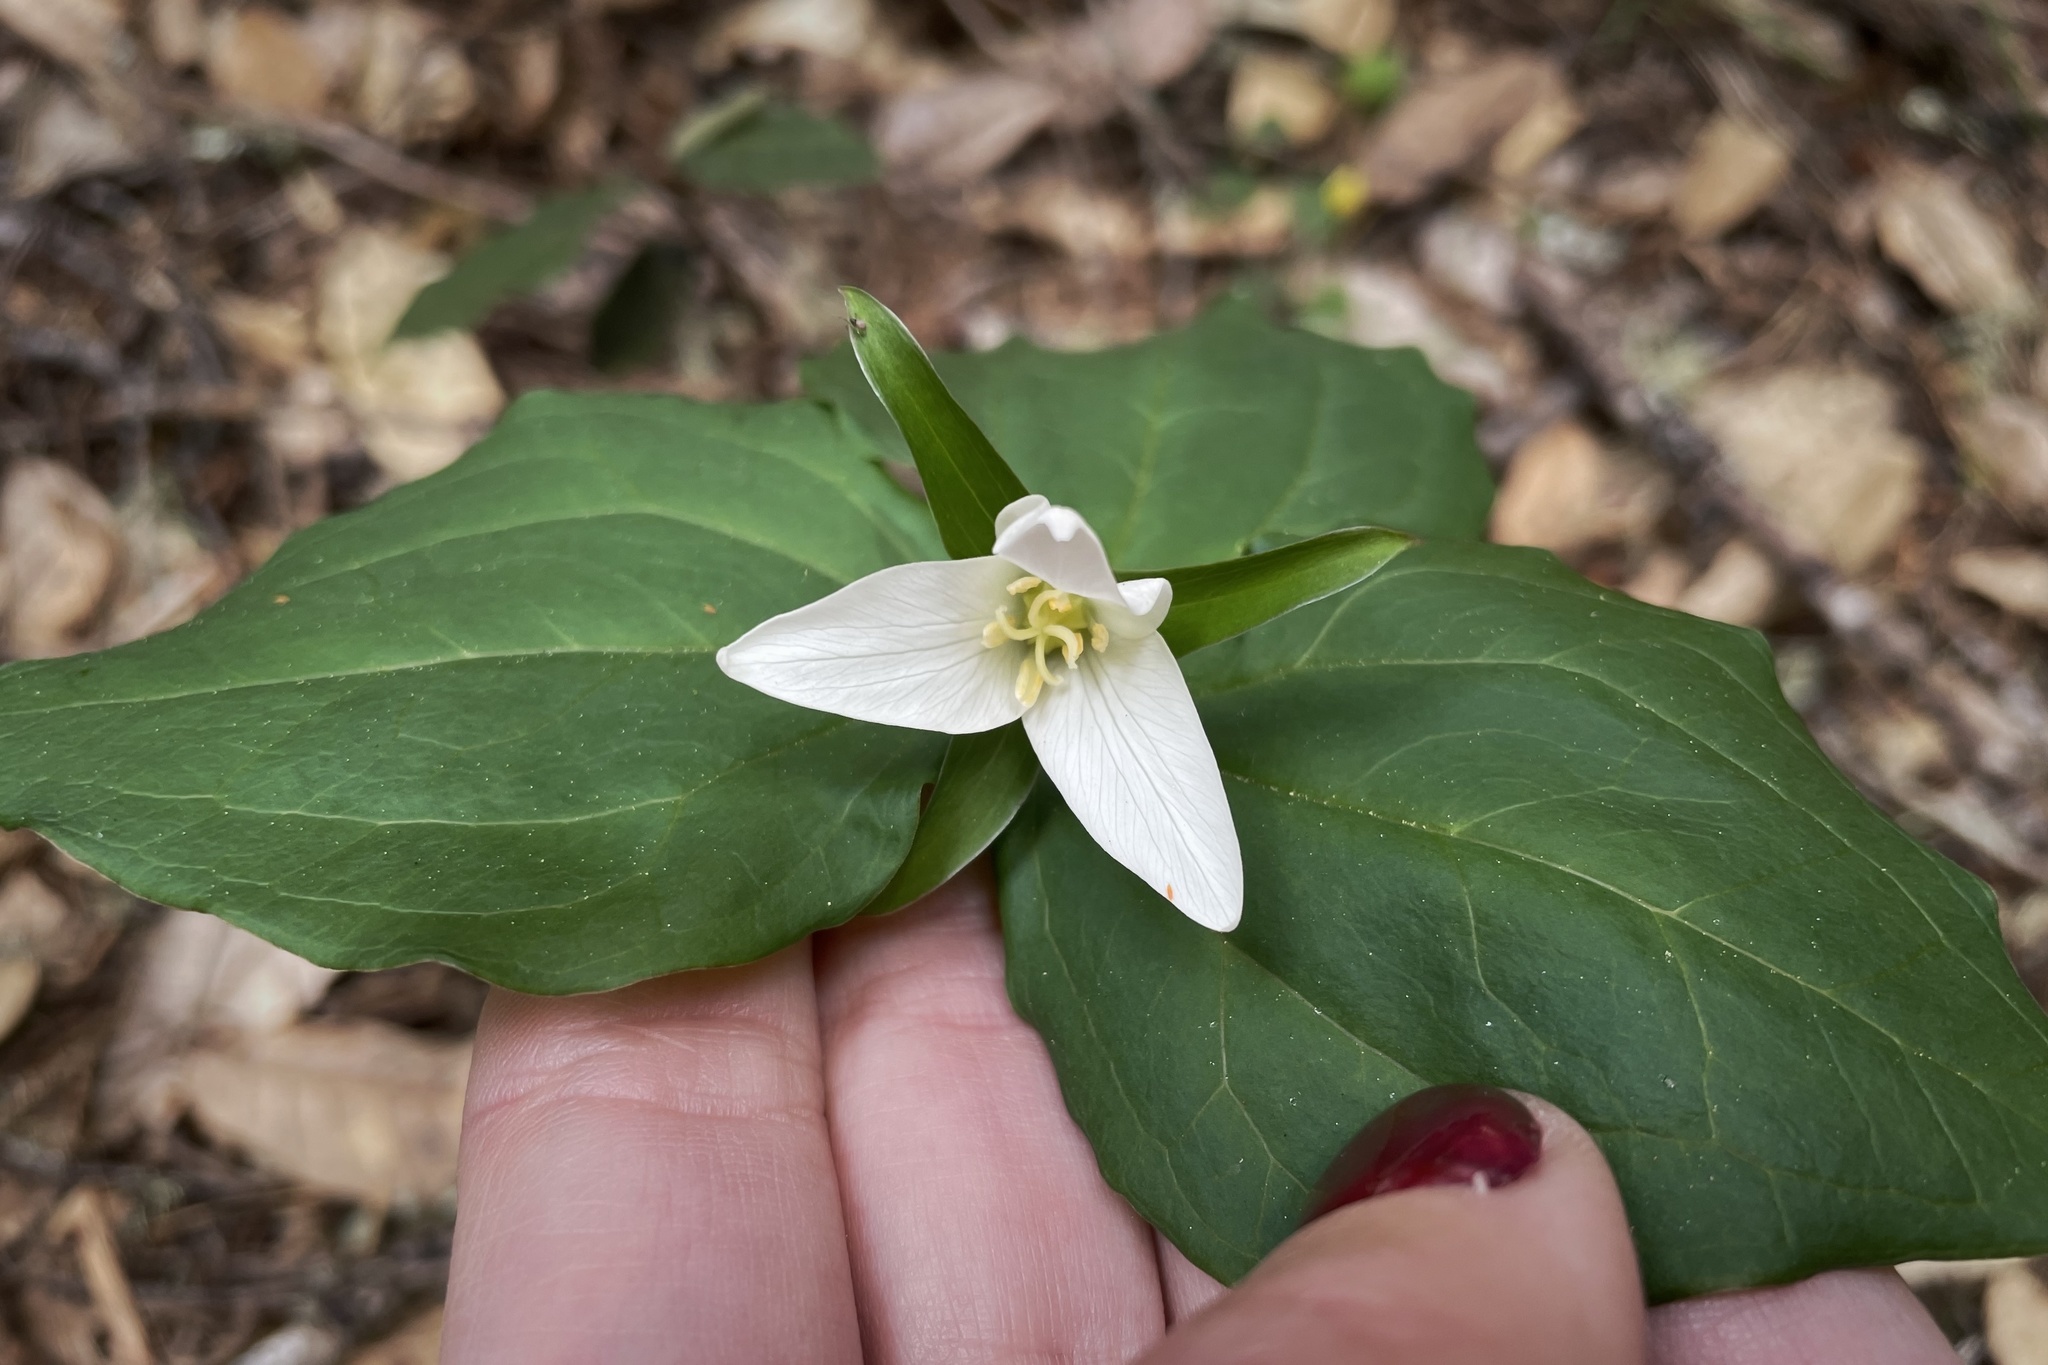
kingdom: Plantae
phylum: Tracheophyta
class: Liliopsida
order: Liliales
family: Melanthiaceae
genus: Trillium
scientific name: Trillium ovatum
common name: Pacific trillium
